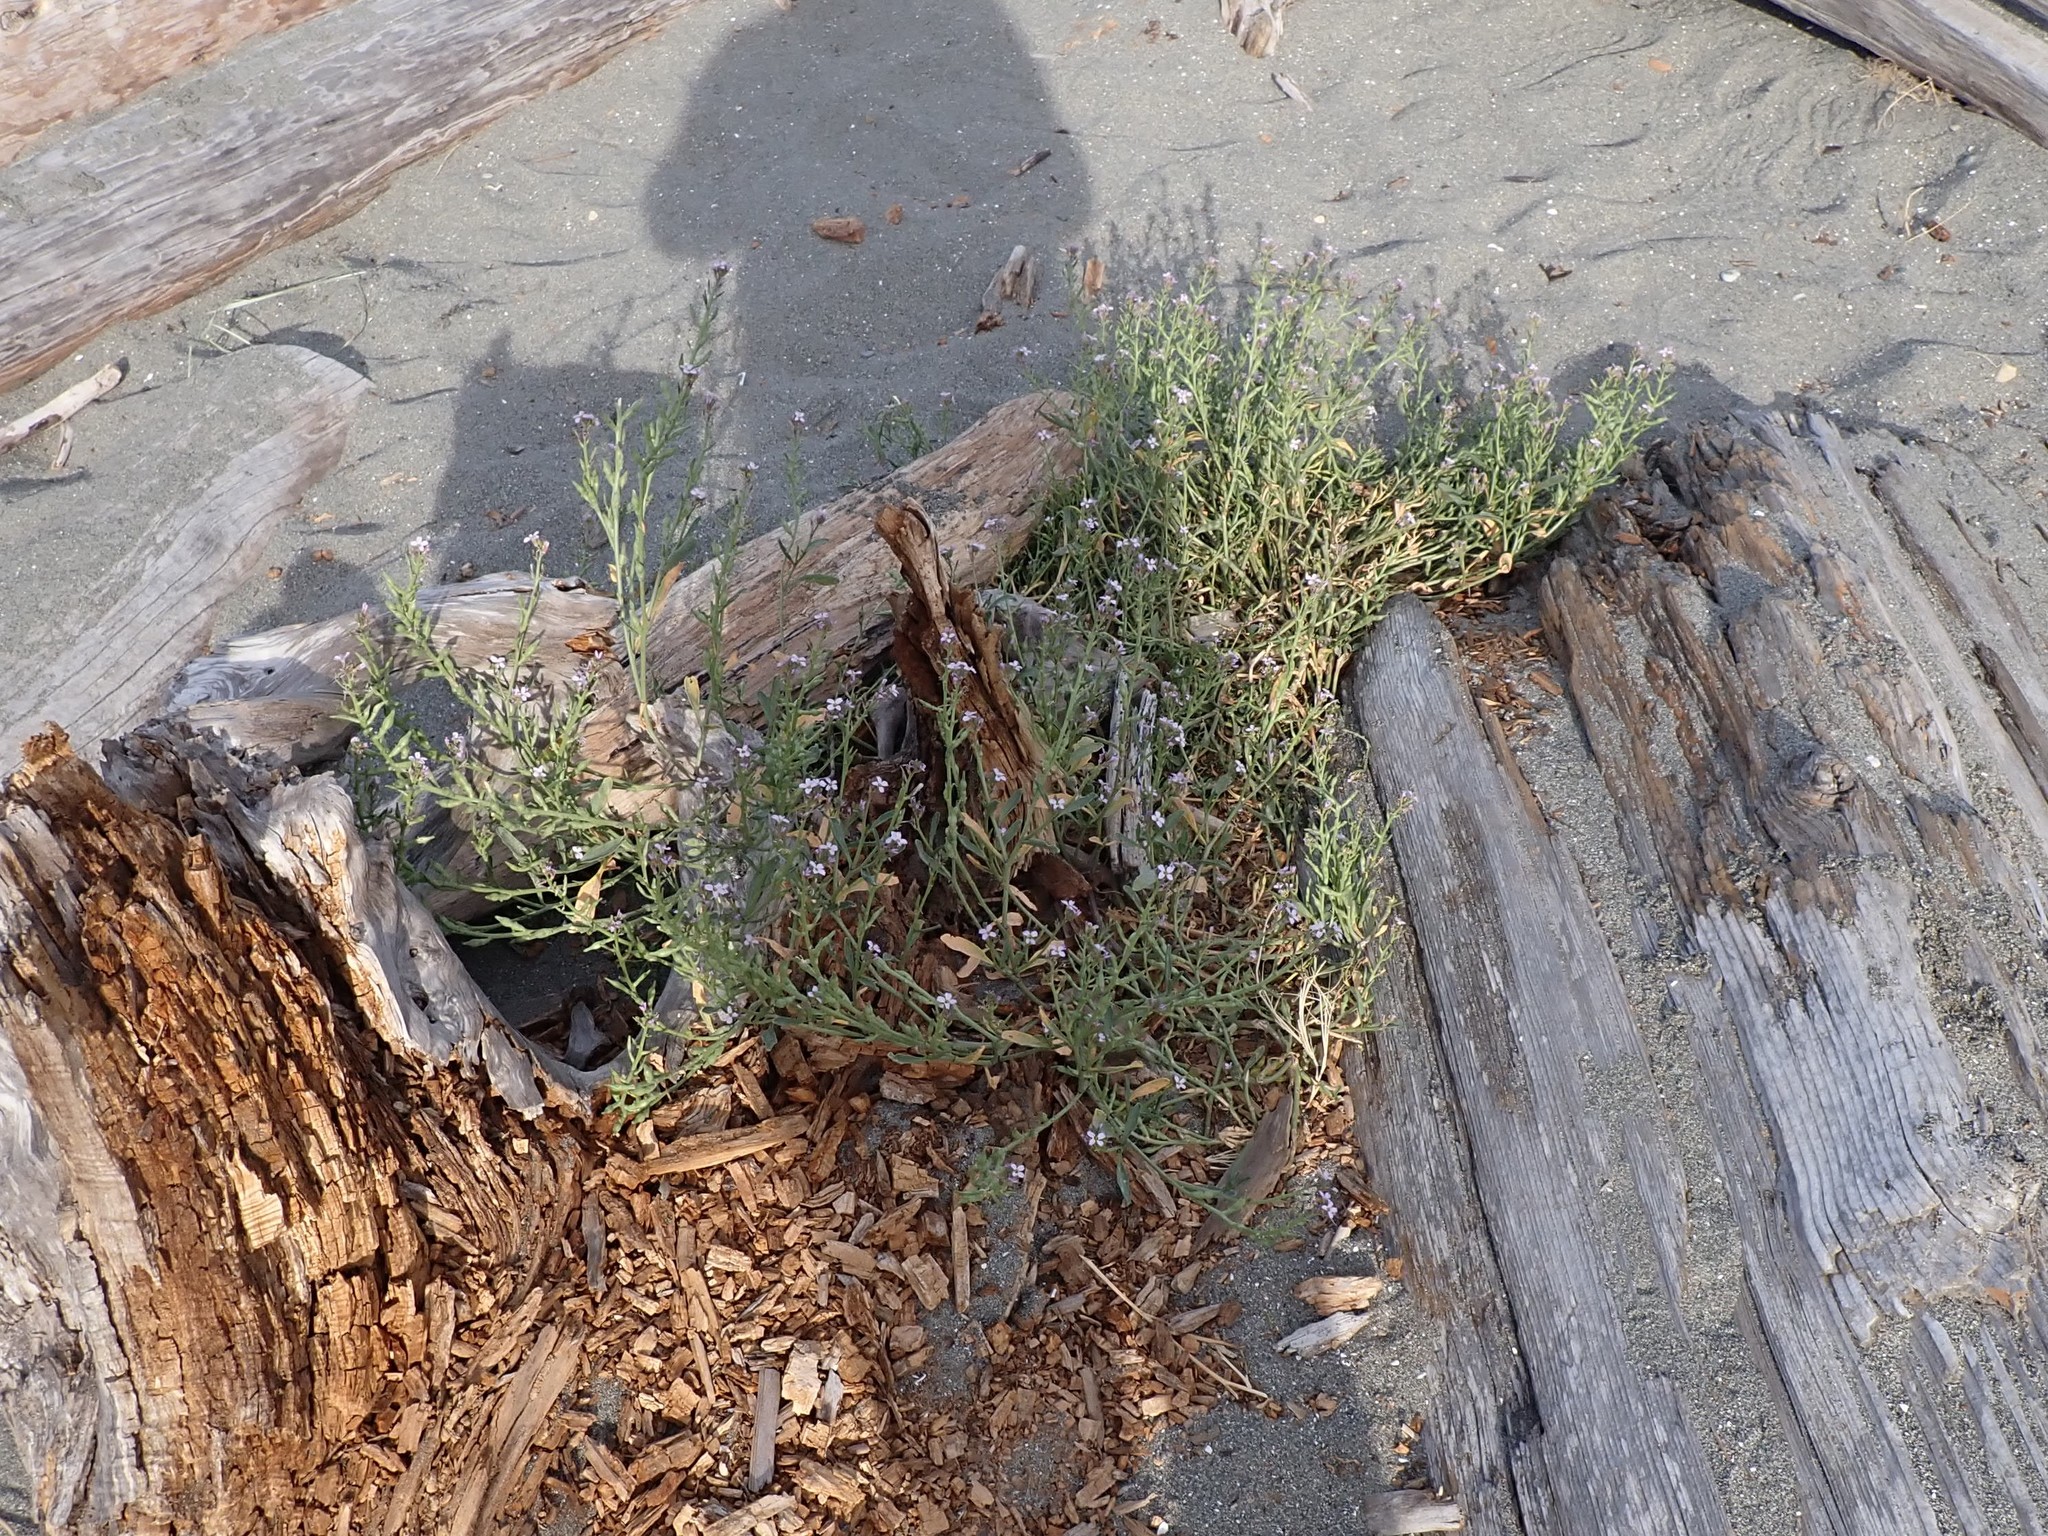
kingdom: Plantae
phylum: Tracheophyta
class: Magnoliopsida
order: Brassicales
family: Brassicaceae
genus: Cakile
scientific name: Cakile maritima
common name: Sea rocket
